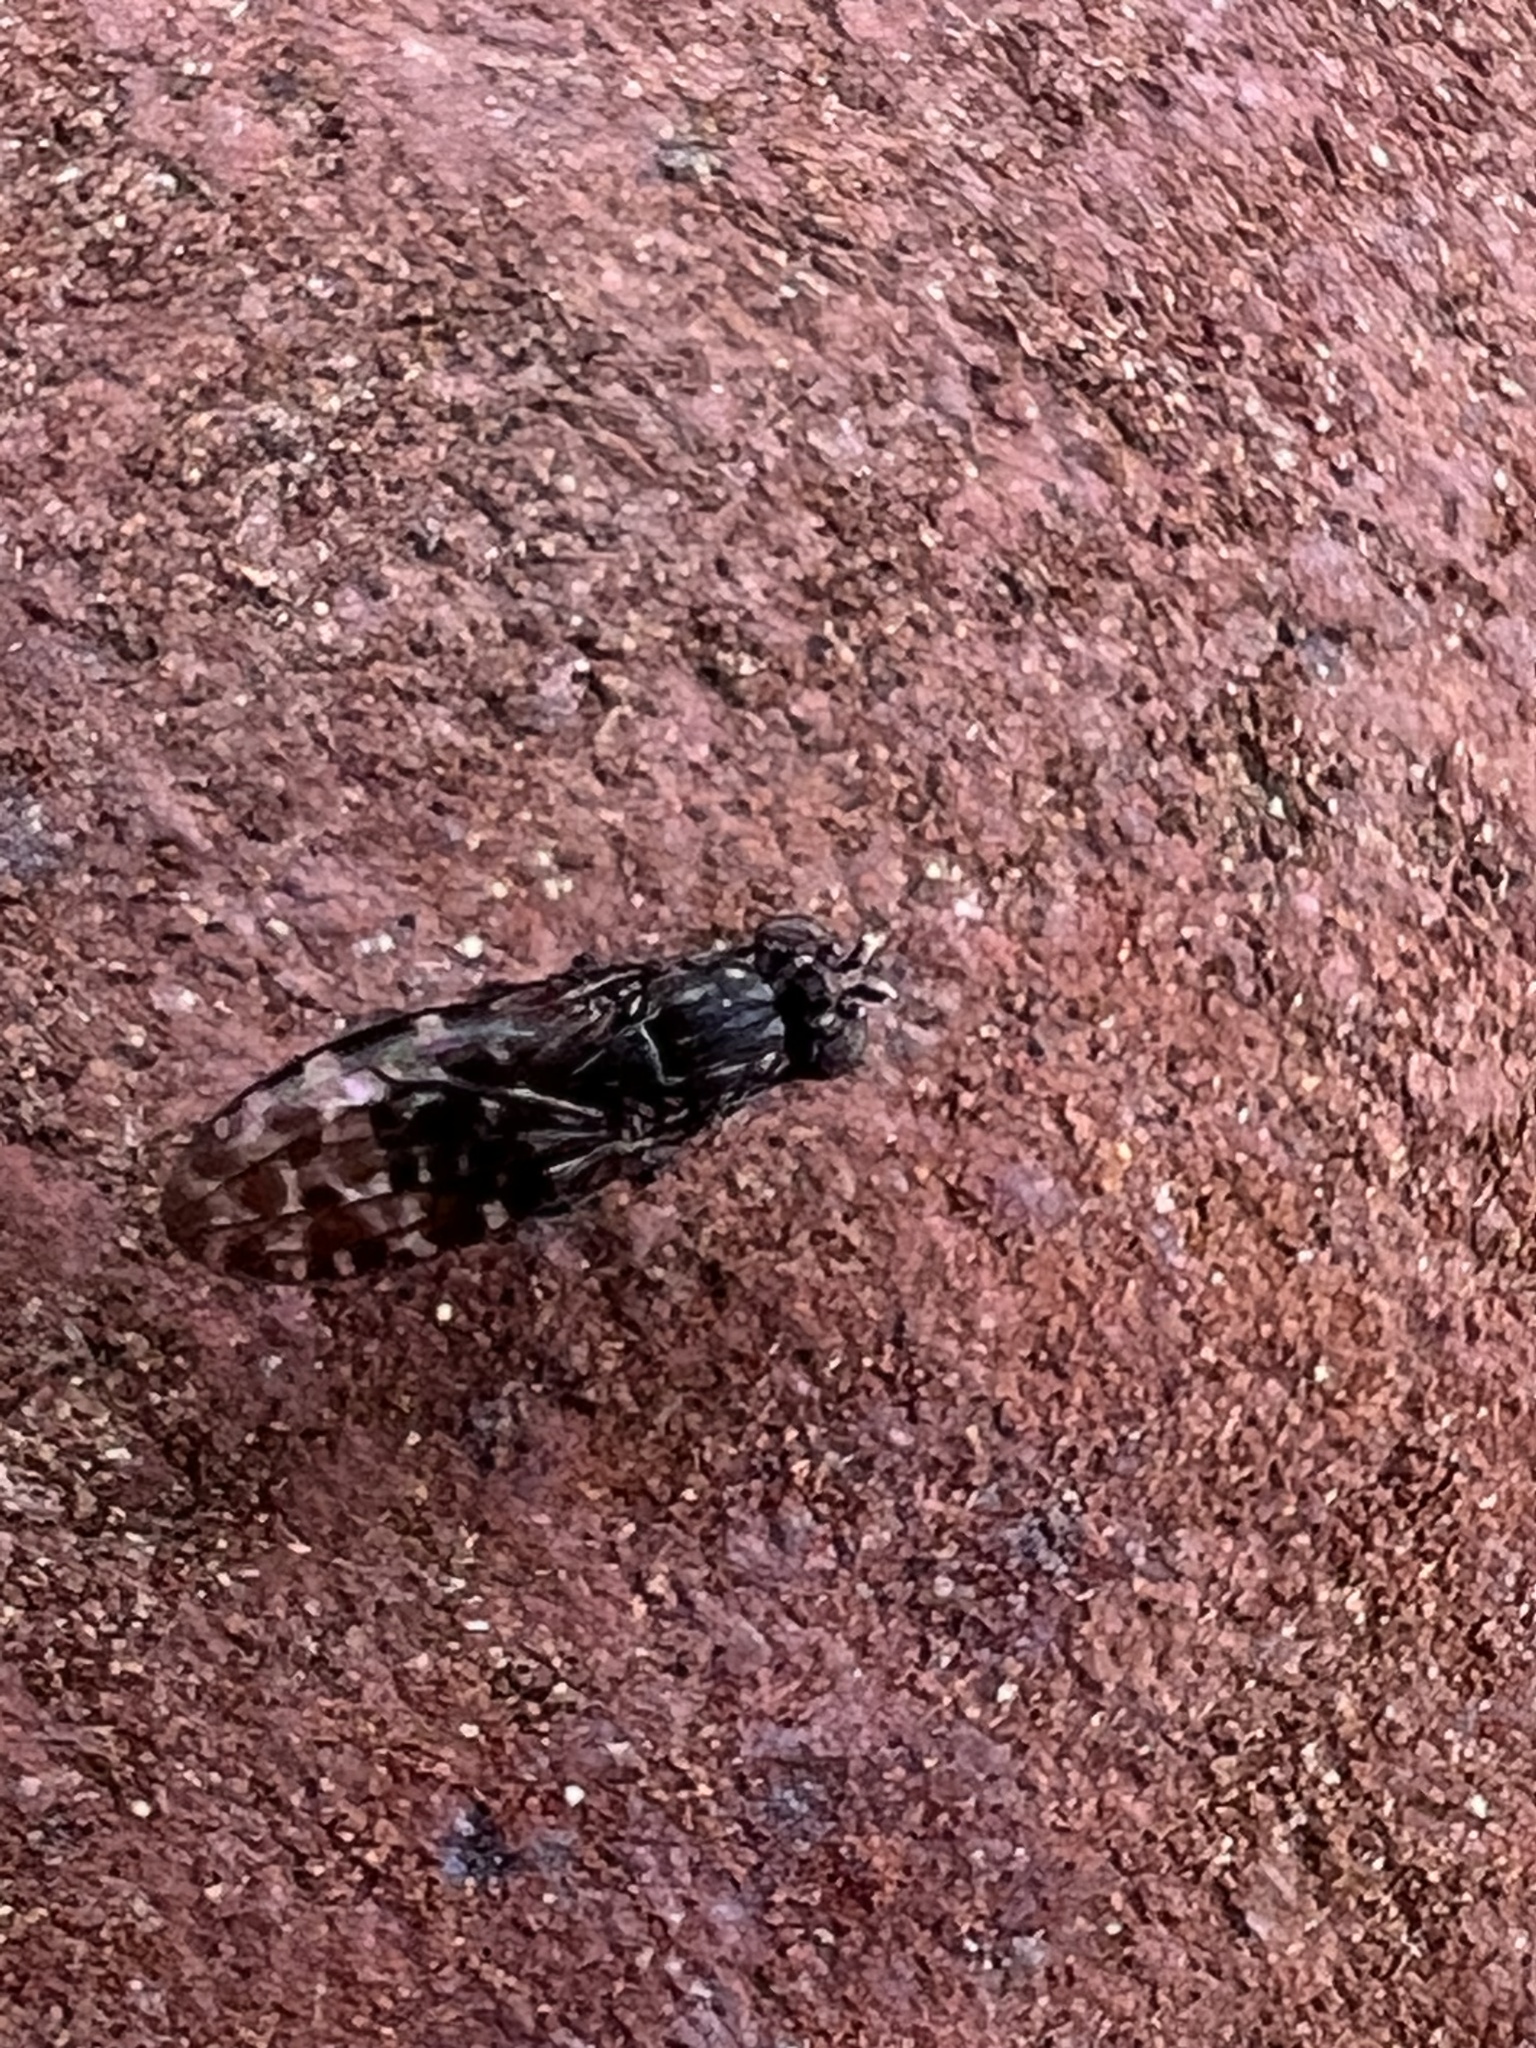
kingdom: Animalia
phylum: Arthropoda
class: Insecta
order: Diptera
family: Ephydridae
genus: Limnellia
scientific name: Limnellia turneri
